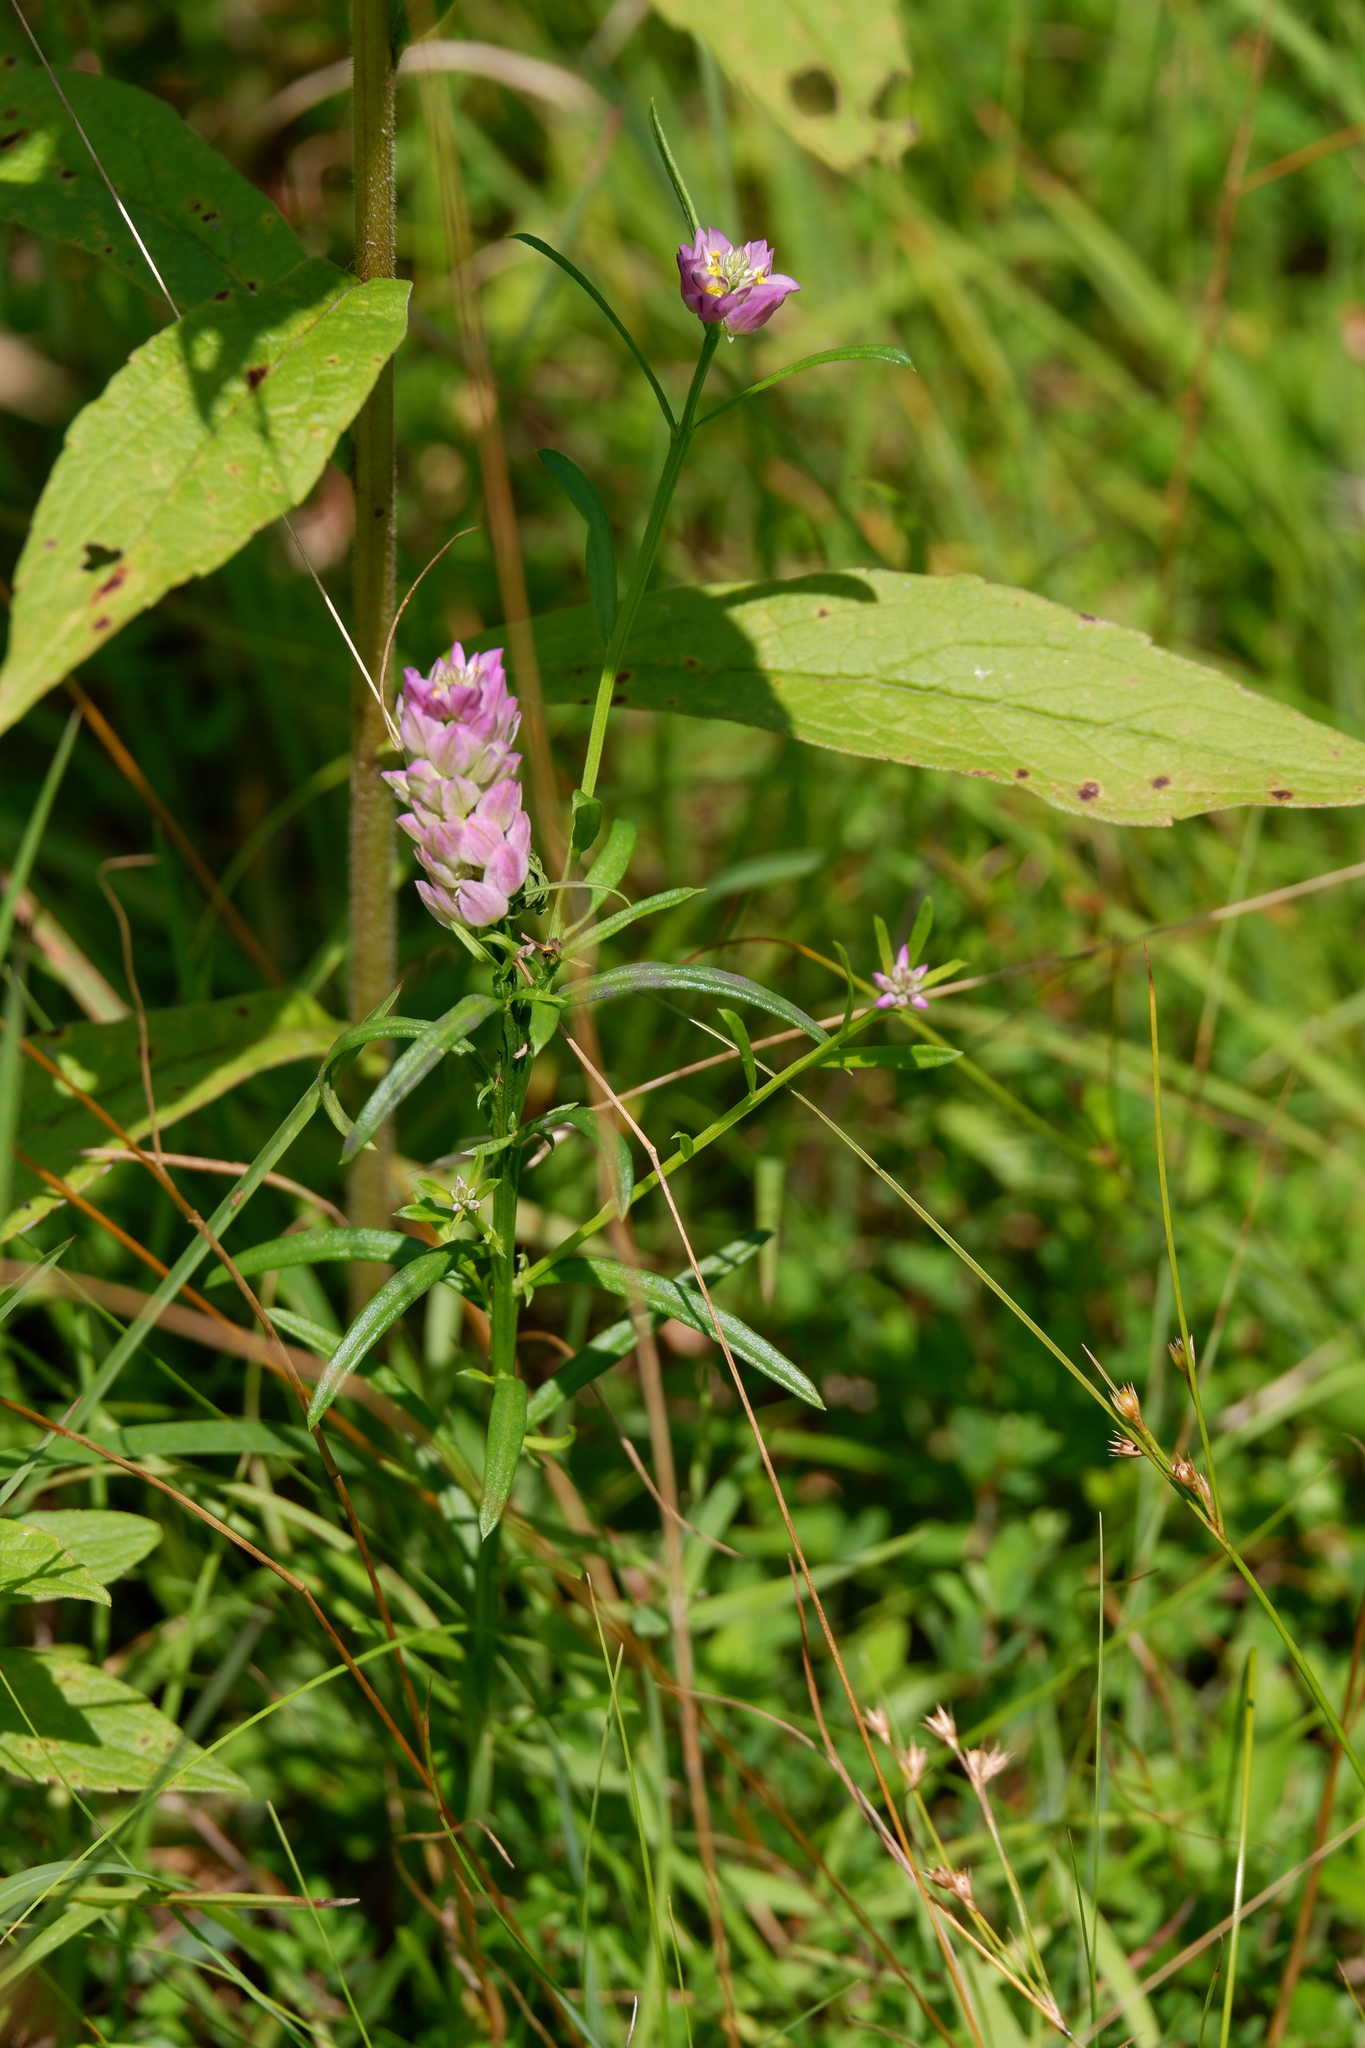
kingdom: Plantae
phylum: Tracheophyta
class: Magnoliopsida
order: Fabales
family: Polygalaceae
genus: Polygala
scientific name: Polygala sanguinea
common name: Blood milkwort
